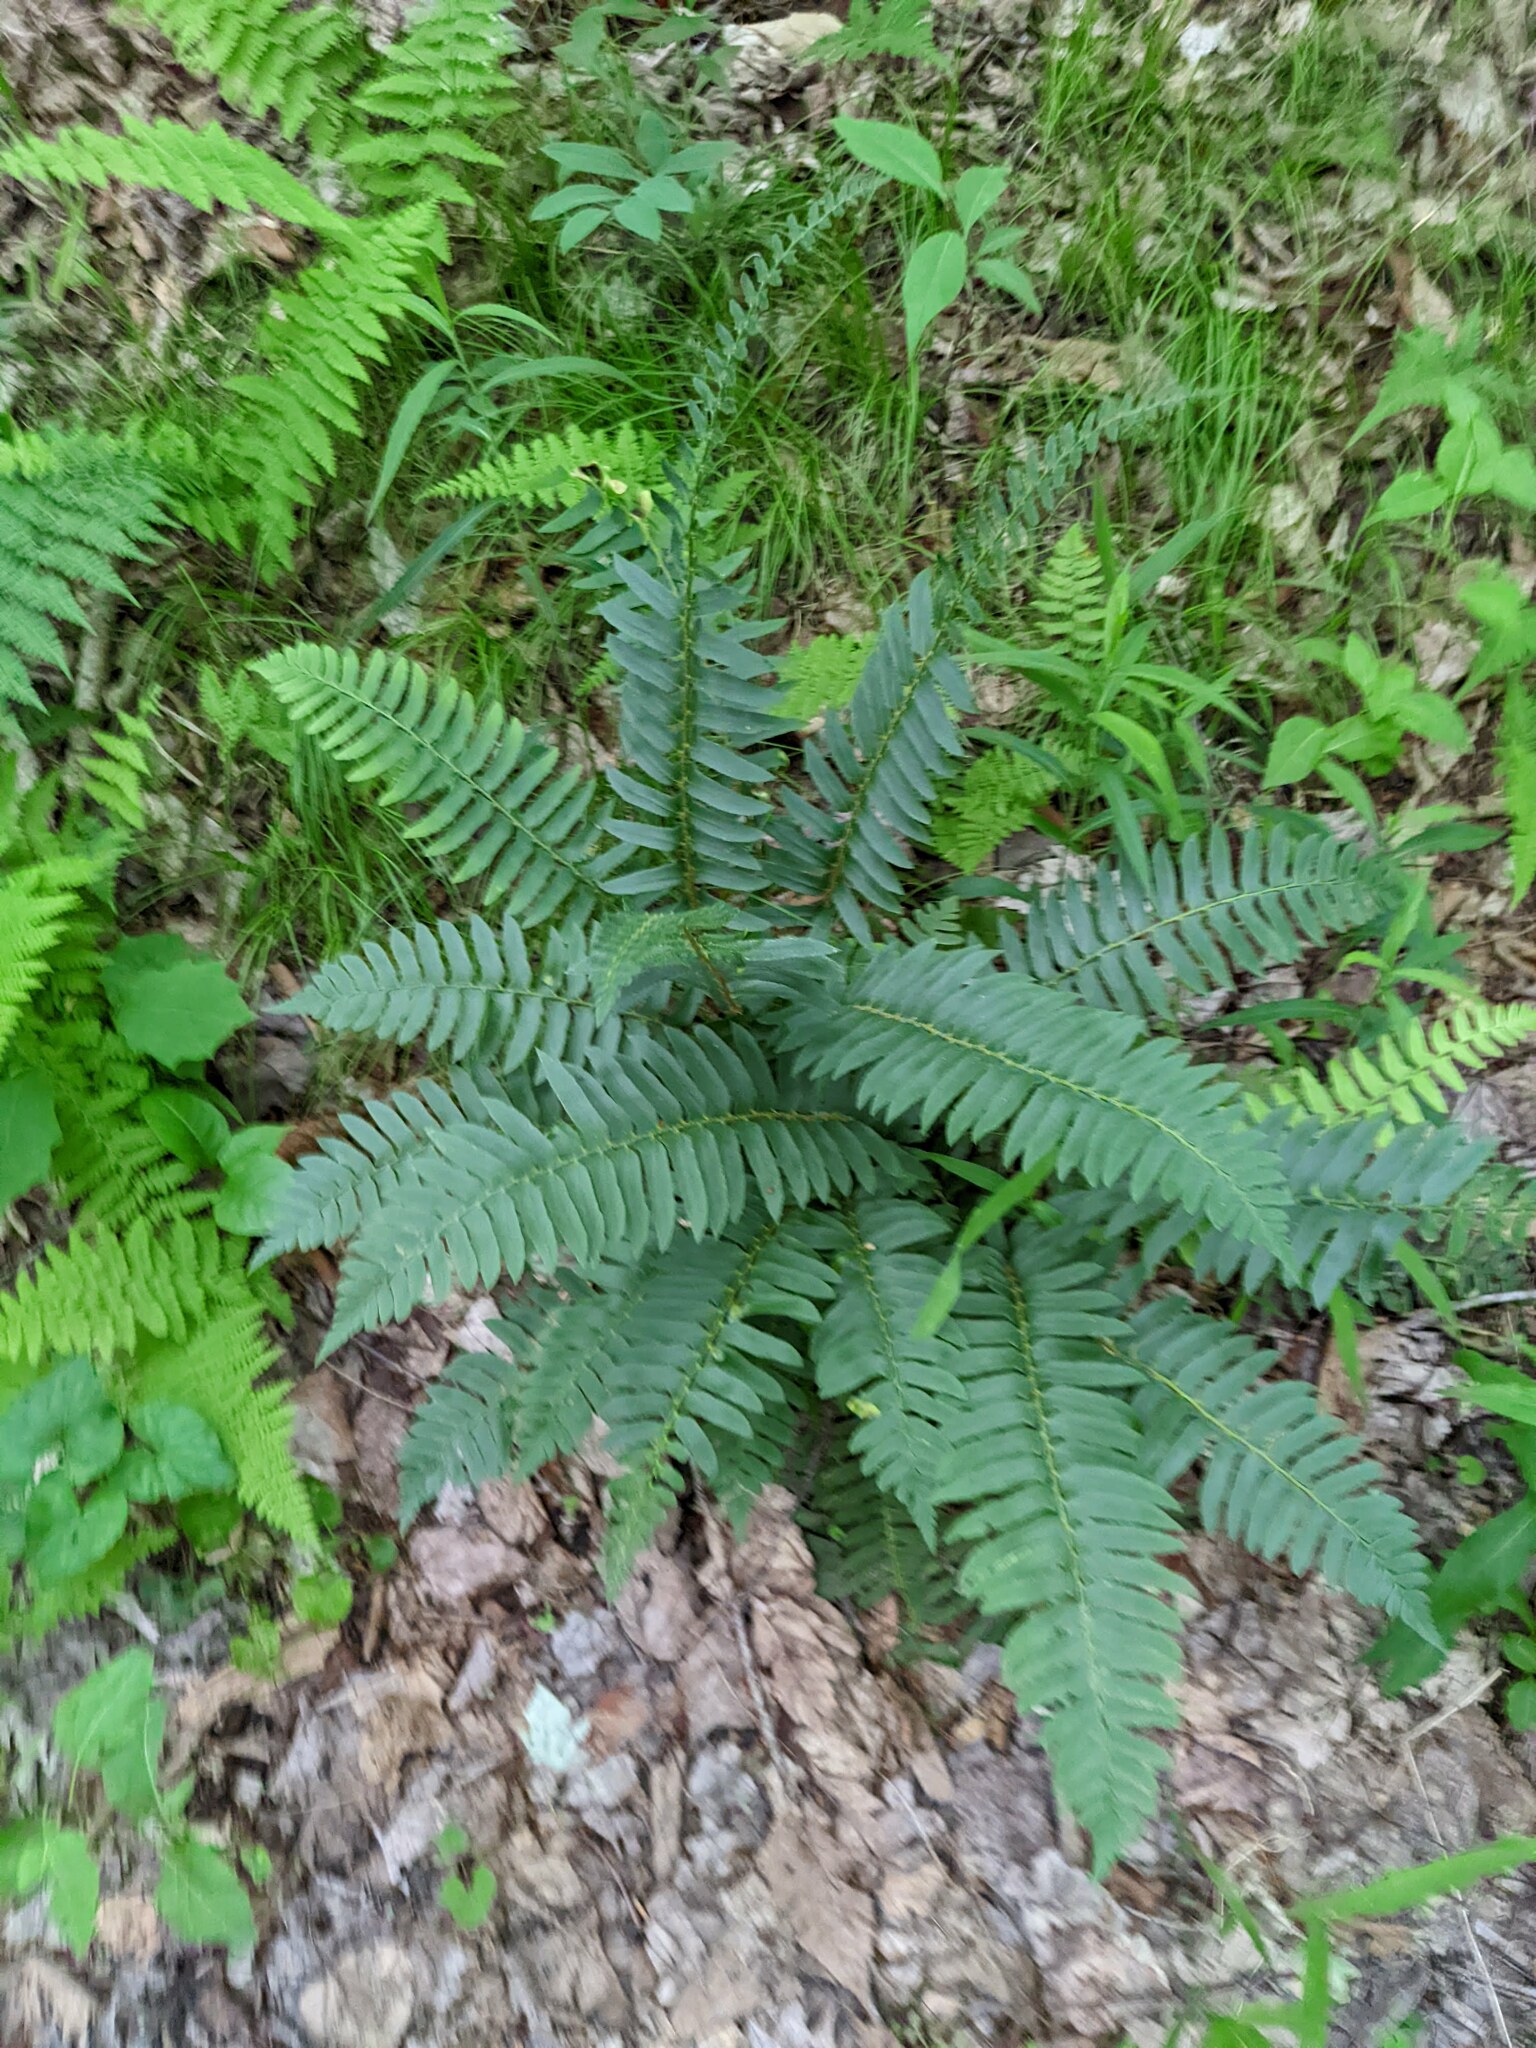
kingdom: Plantae
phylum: Tracheophyta
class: Polypodiopsida
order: Polypodiales
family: Dryopteridaceae
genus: Polystichum
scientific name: Polystichum acrostichoides
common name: Christmas fern
